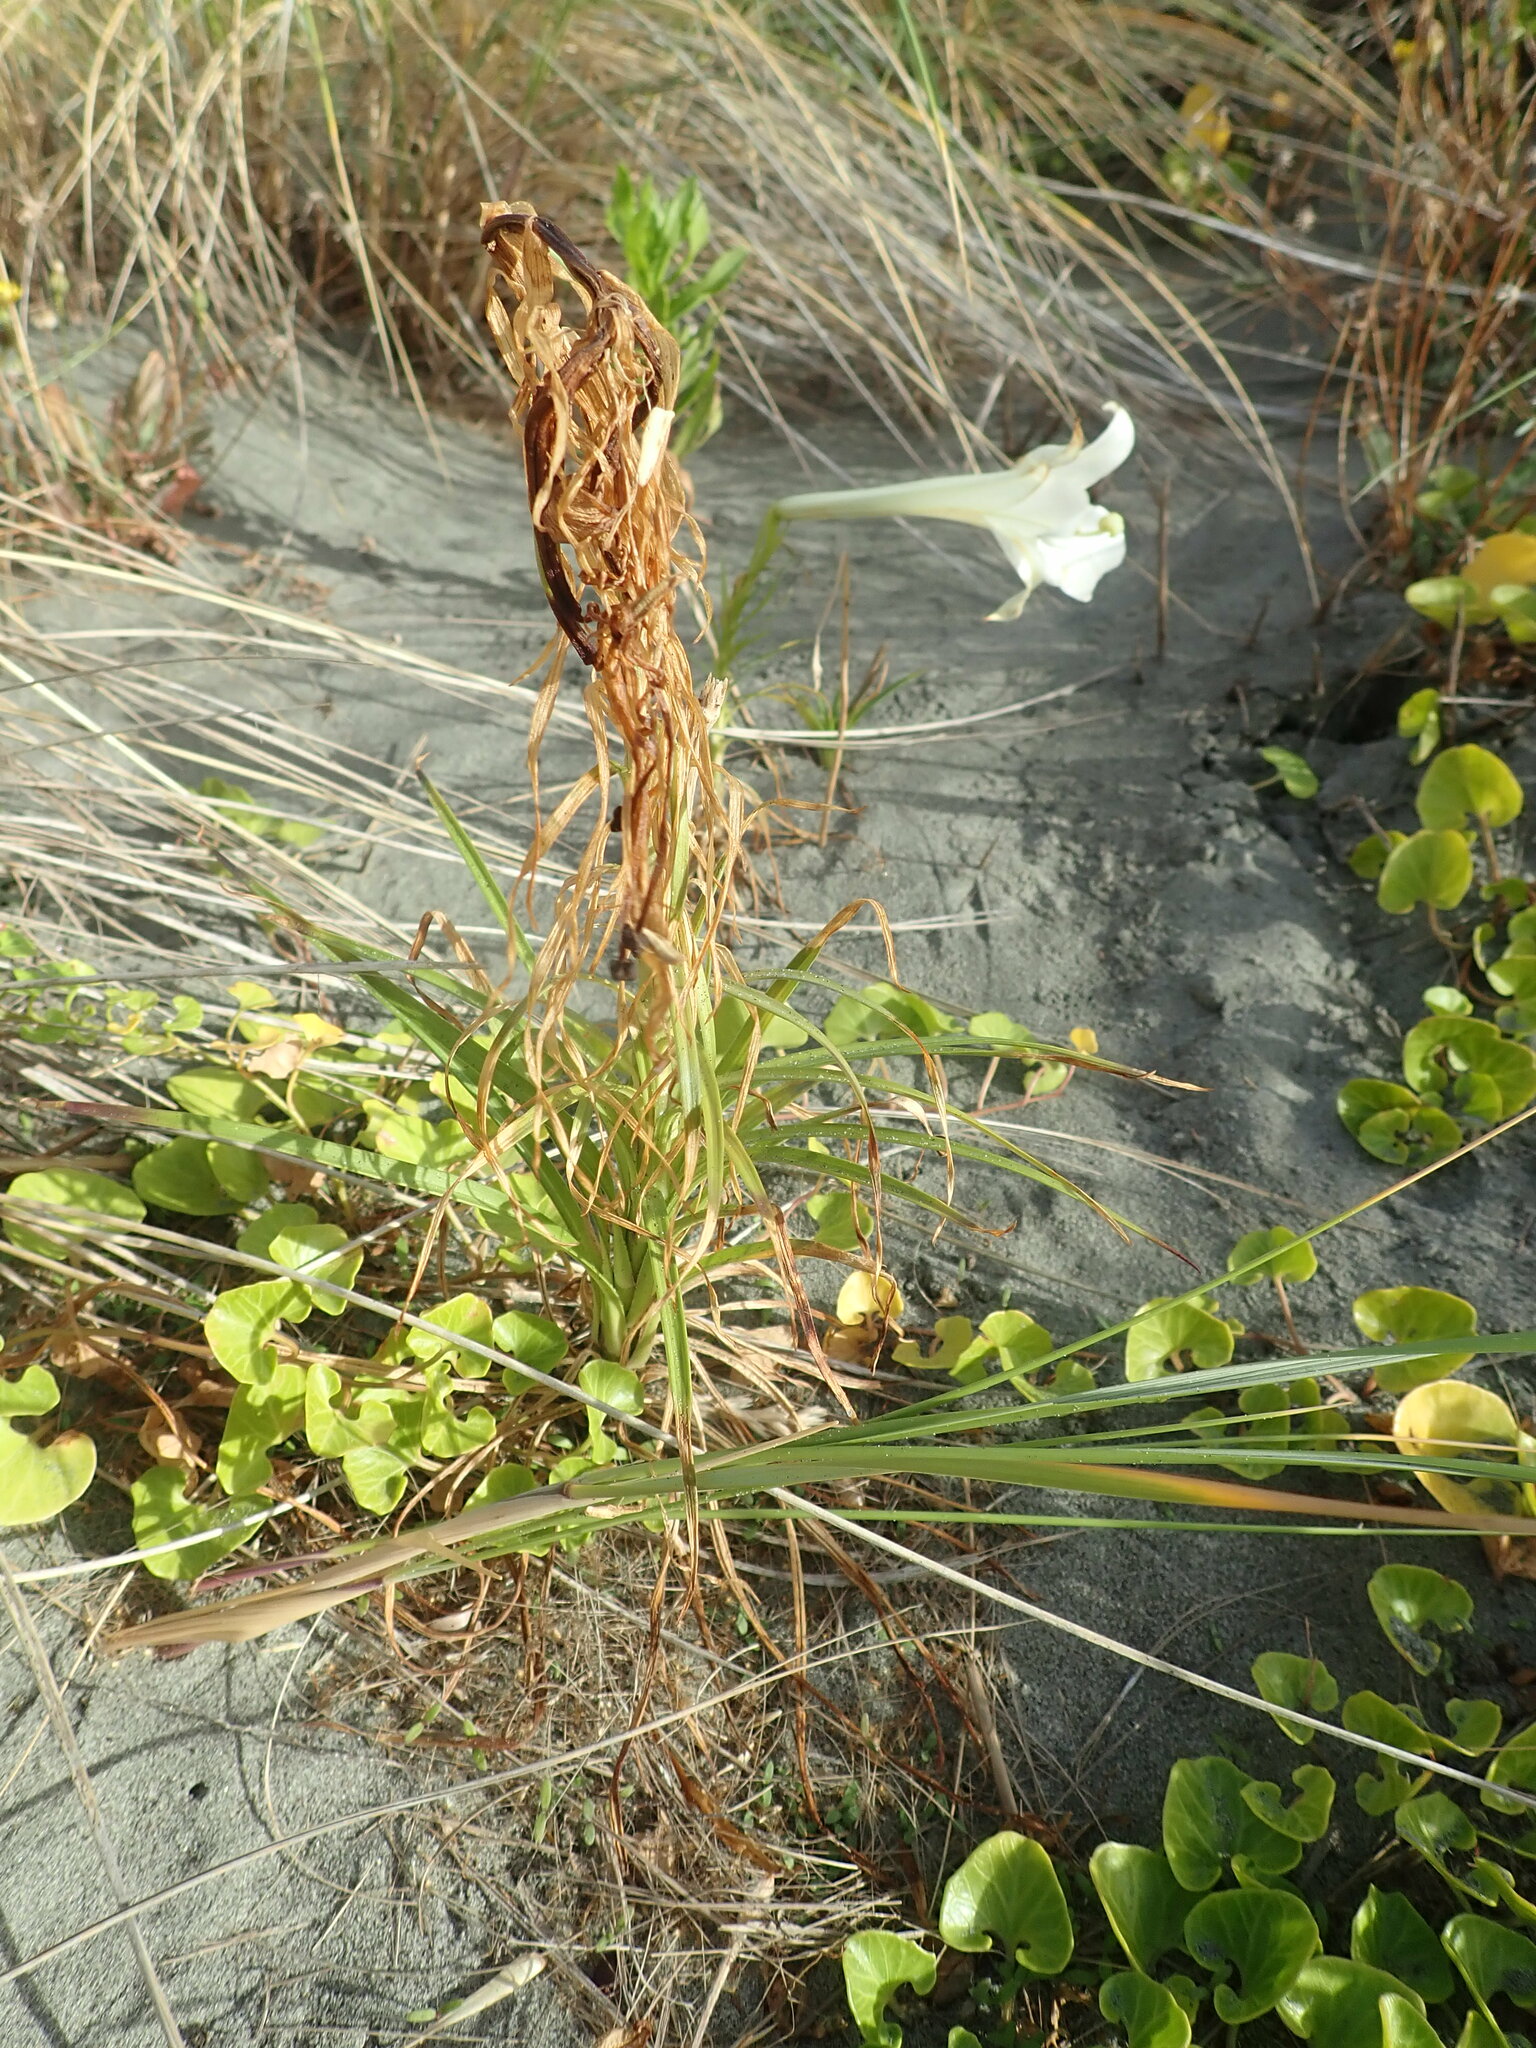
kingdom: Plantae
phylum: Tracheophyta
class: Liliopsida
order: Liliales
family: Liliaceae
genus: Lilium
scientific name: Lilium formosanum
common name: Formosa lily
